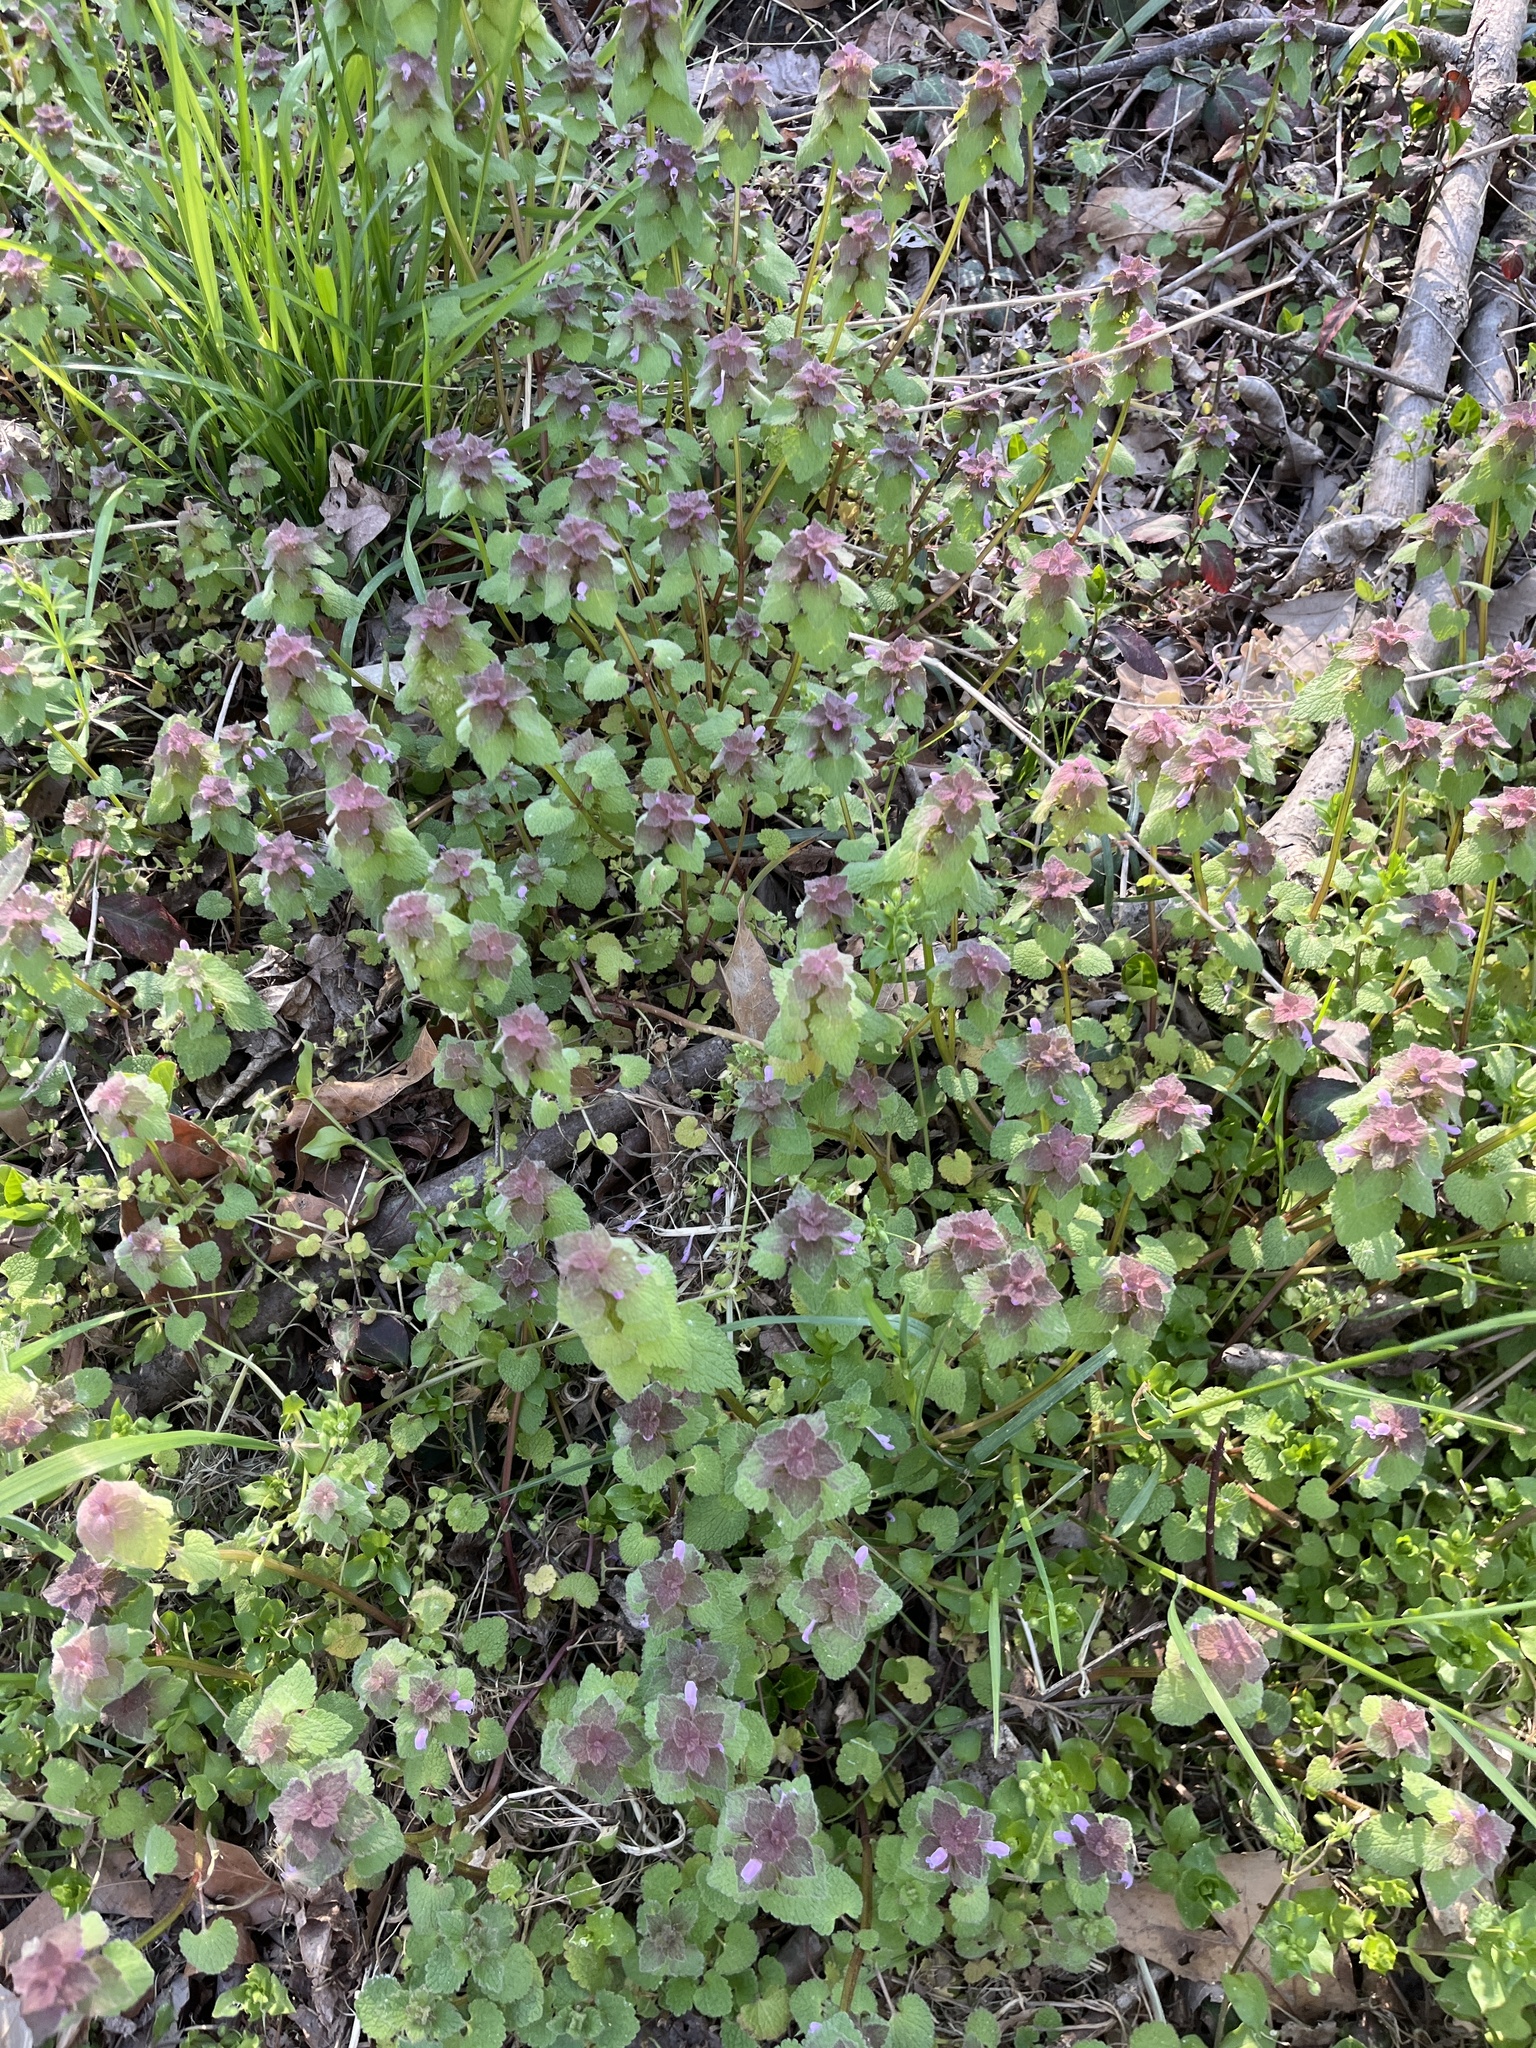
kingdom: Plantae
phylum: Tracheophyta
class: Magnoliopsida
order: Lamiales
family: Lamiaceae
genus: Lamium
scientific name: Lamium purpureum
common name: Red dead-nettle
